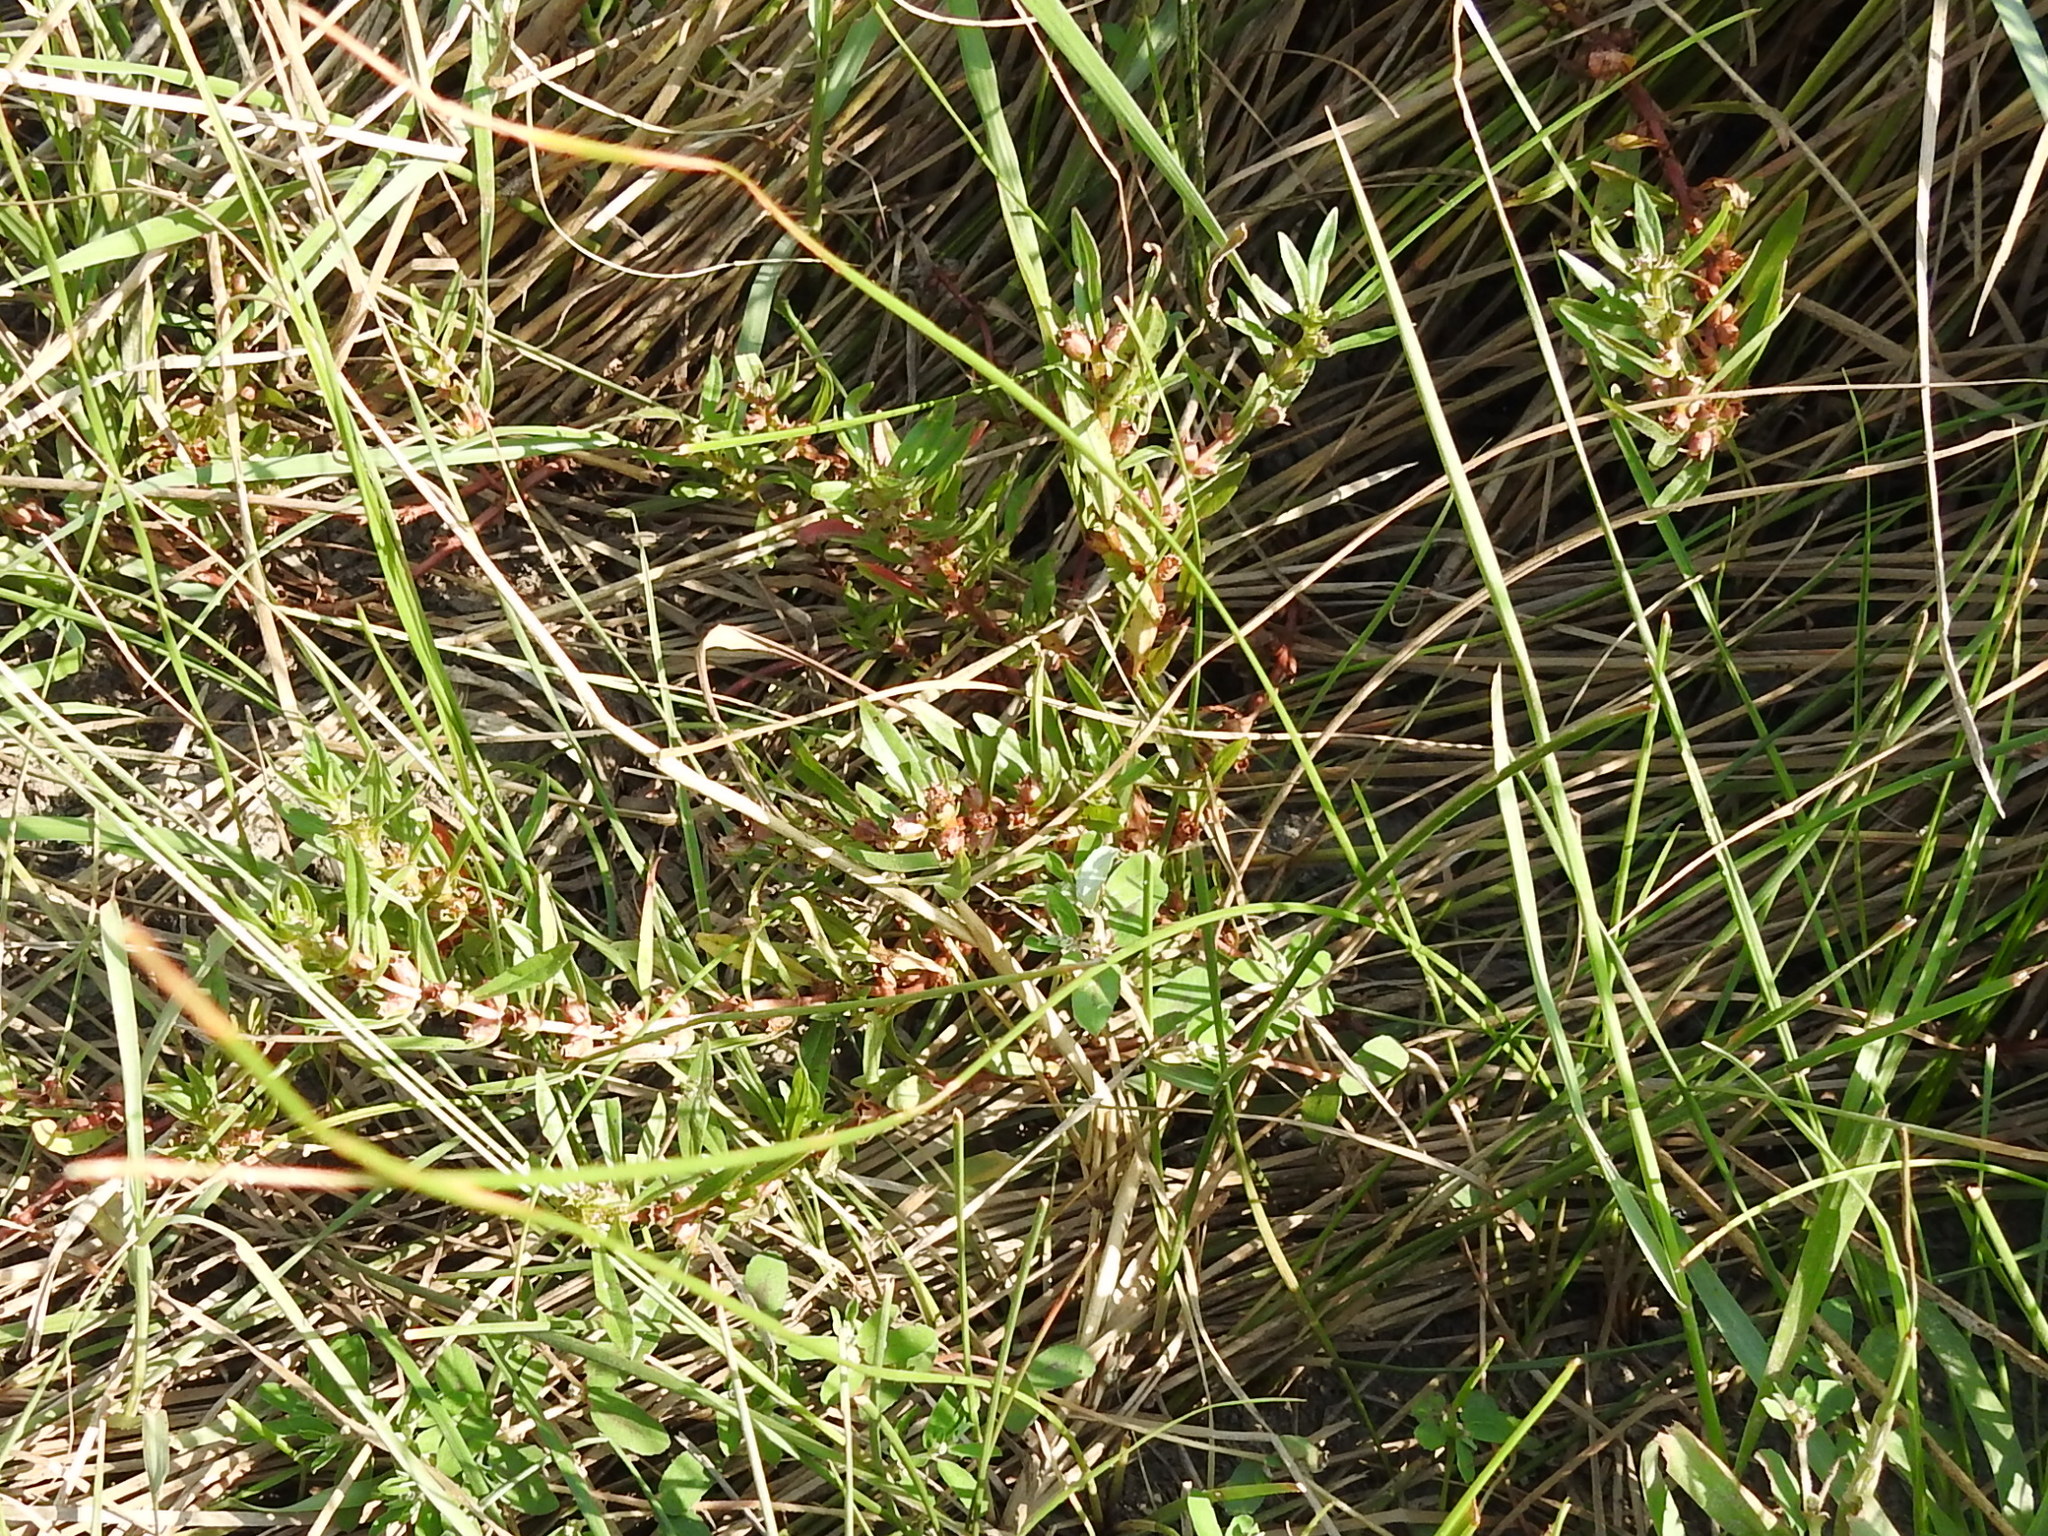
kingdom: Plantae
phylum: Tracheophyta
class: Magnoliopsida
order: Myrtales
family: Lythraceae
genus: Rotala
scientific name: Rotala ramosior
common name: Lowland rotala
